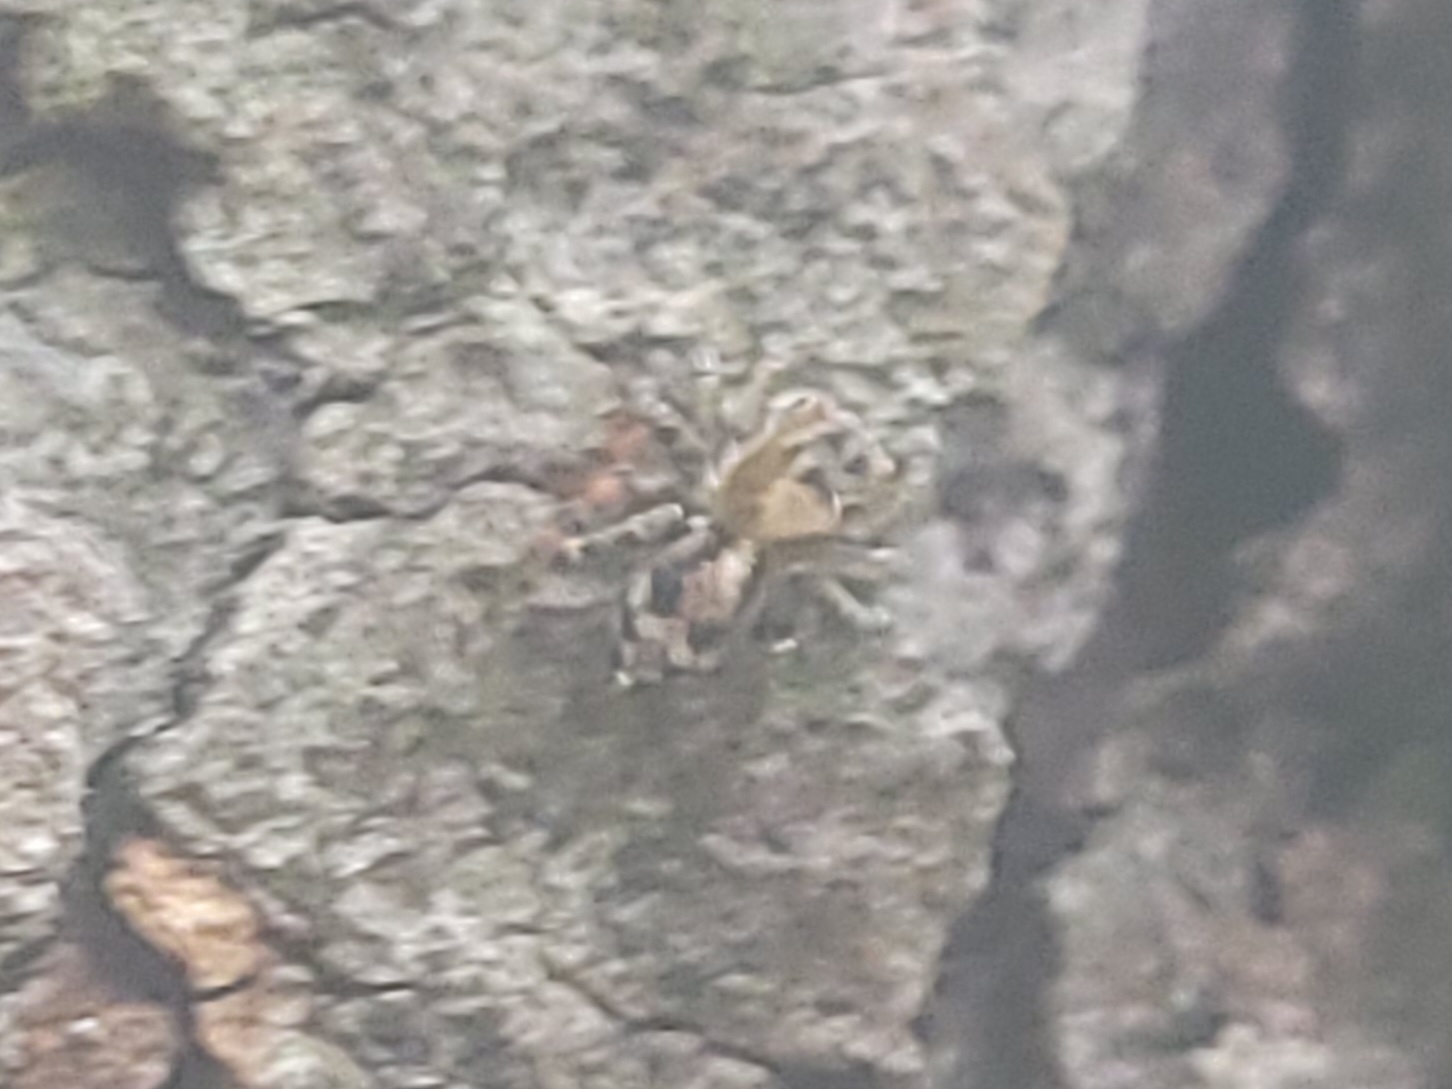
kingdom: Animalia
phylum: Arthropoda
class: Arachnida
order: Araneae
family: Salticidae
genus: Naphrys
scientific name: Naphrys pulex
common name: Flea jumping spider
